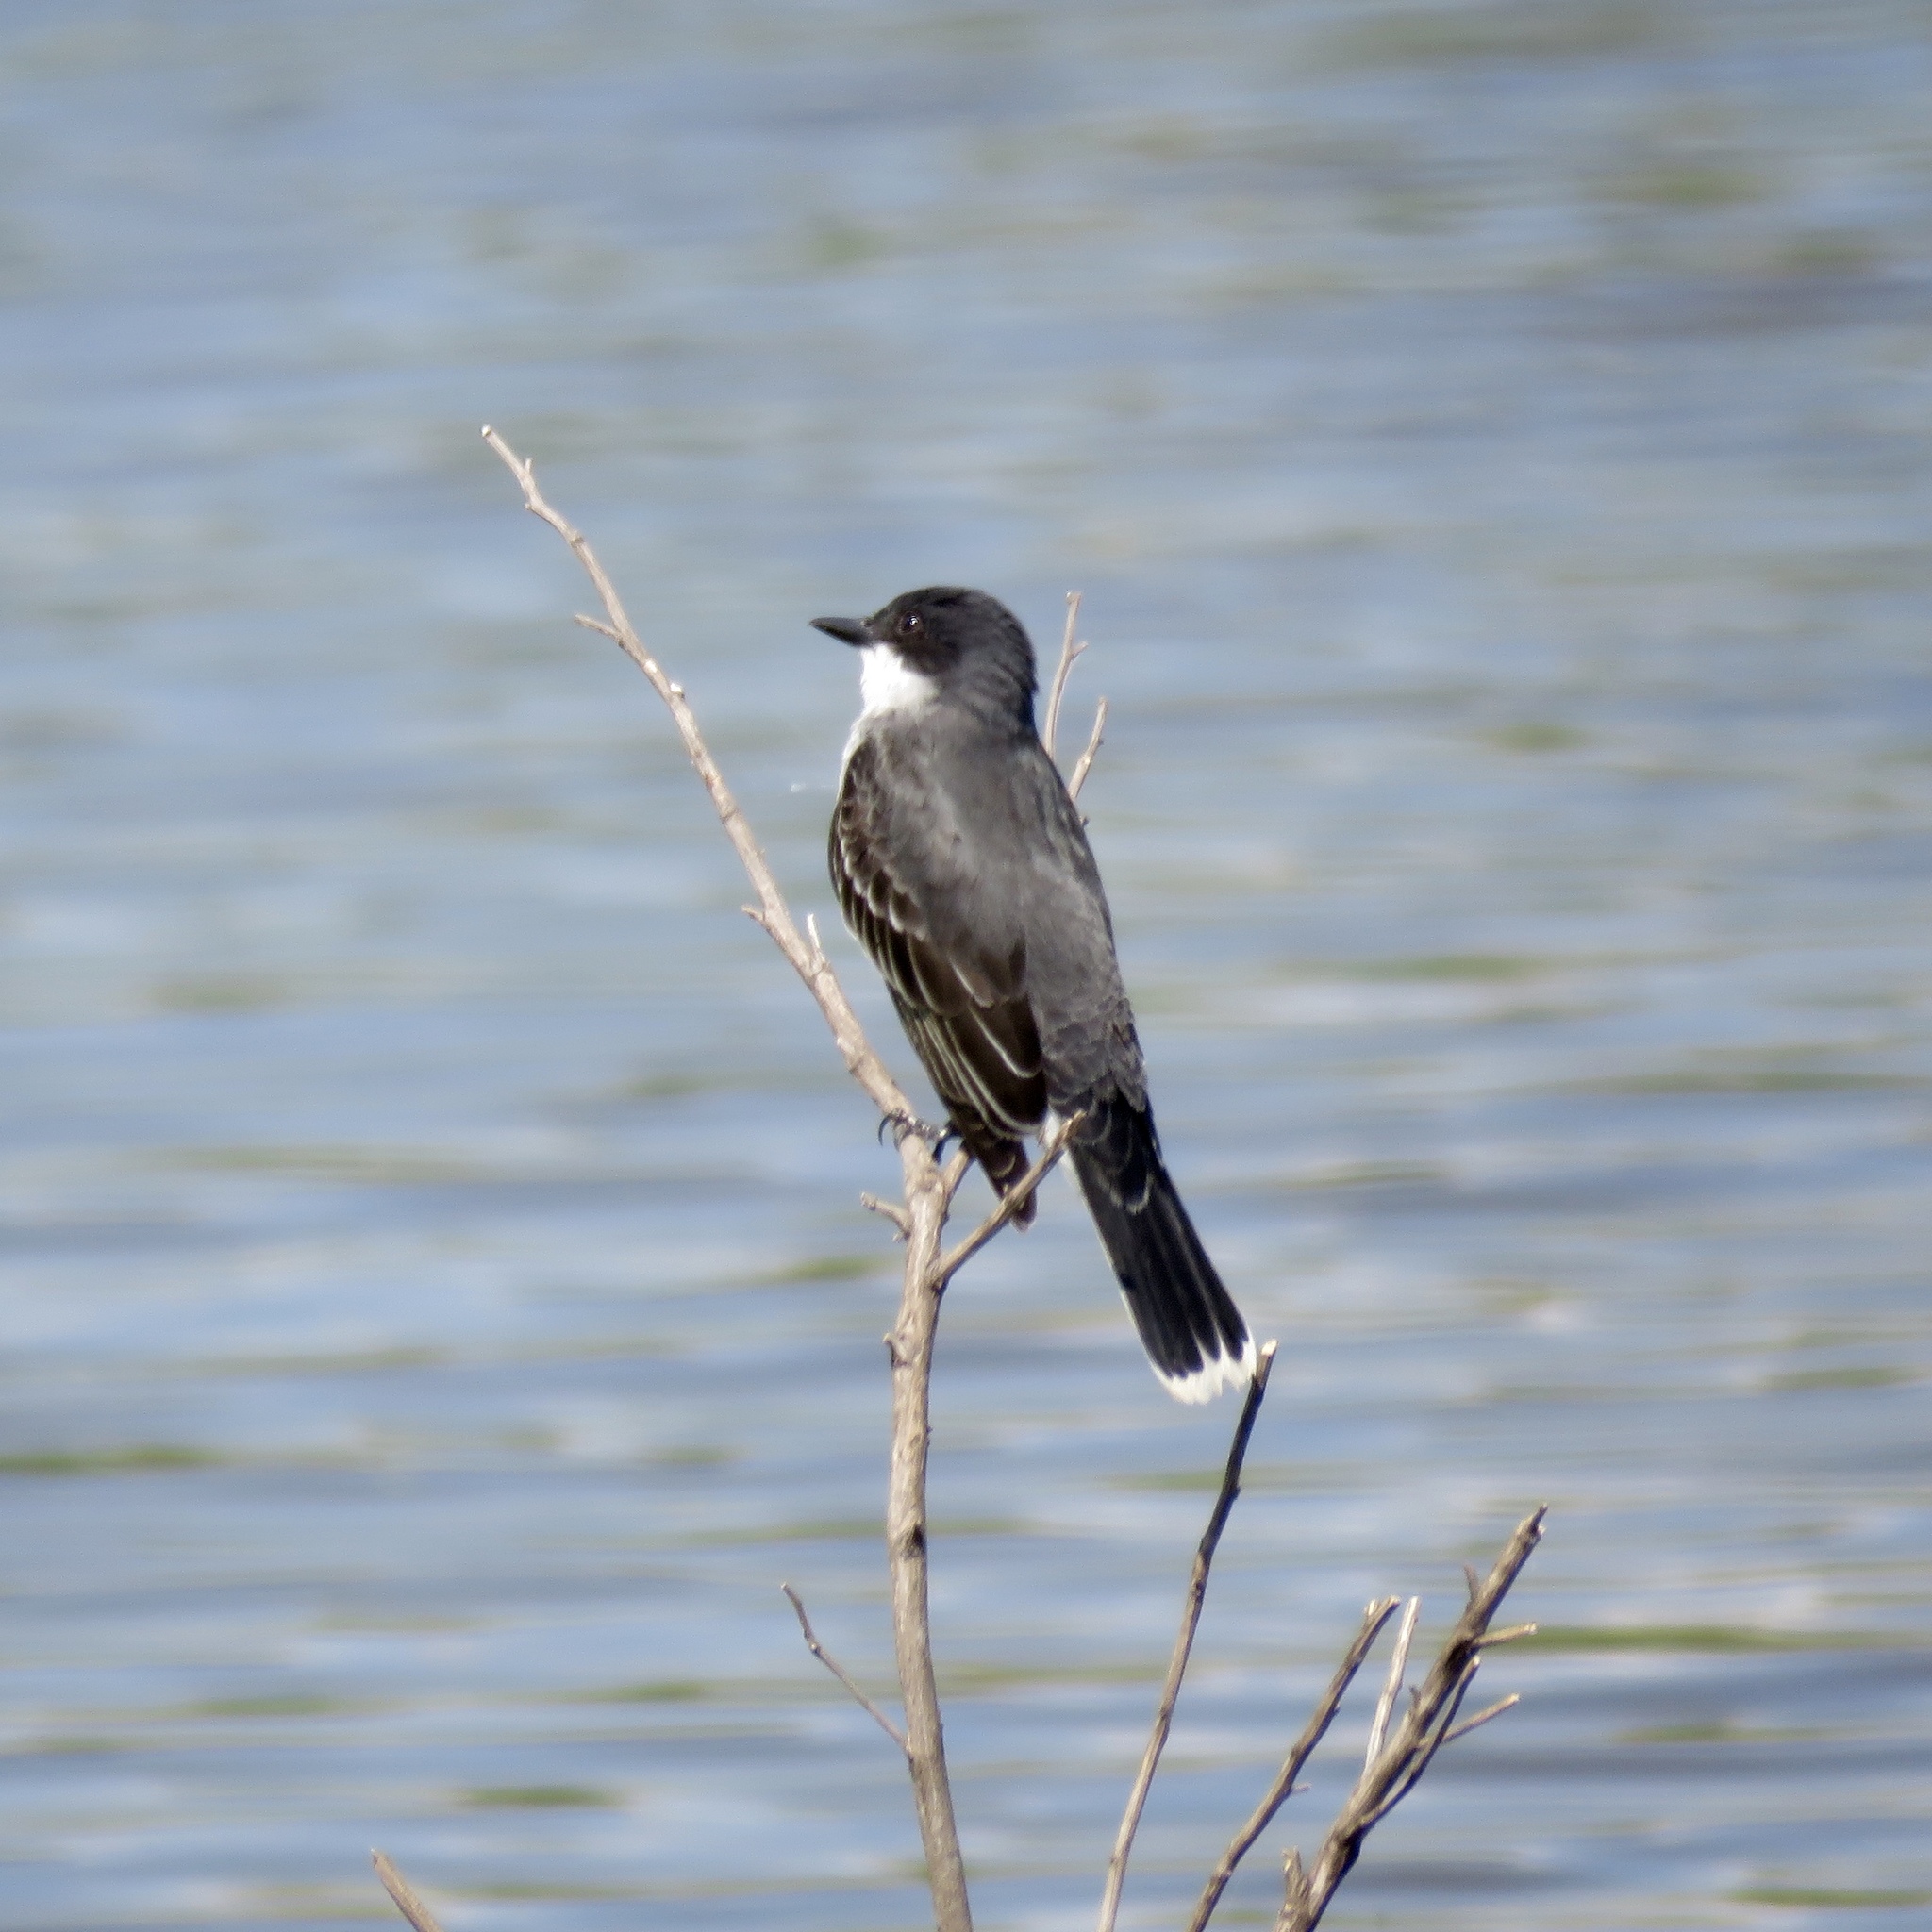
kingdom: Animalia
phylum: Chordata
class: Aves
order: Passeriformes
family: Tyrannidae
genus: Tyrannus
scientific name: Tyrannus tyrannus
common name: Eastern kingbird
